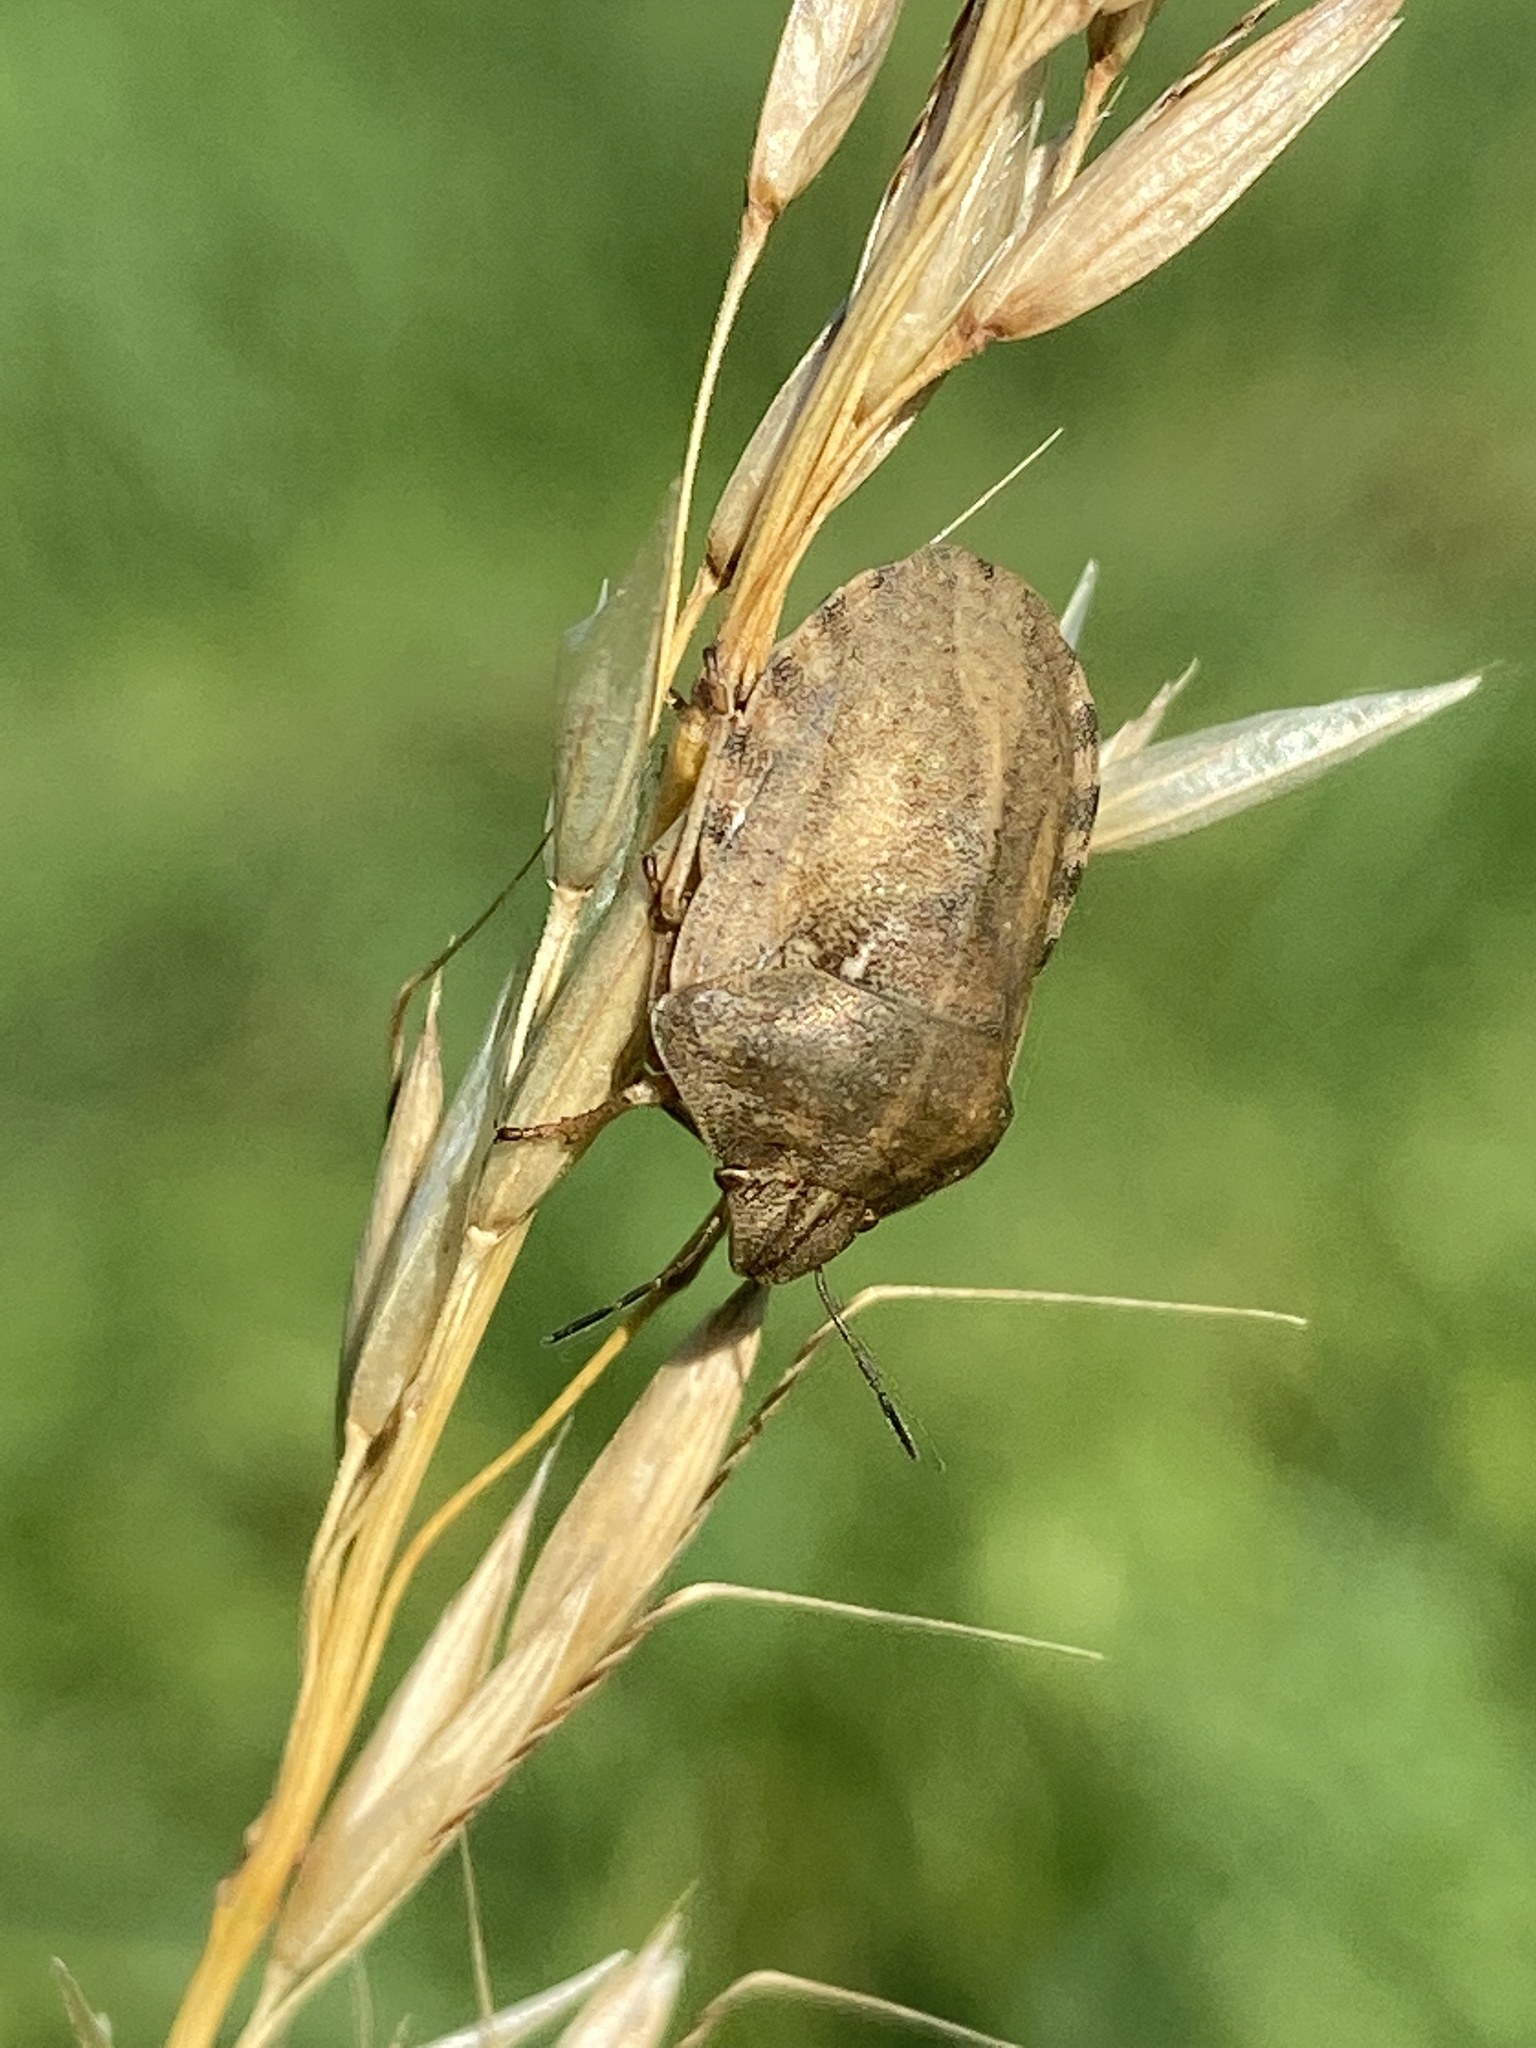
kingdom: Animalia
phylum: Arthropoda
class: Insecta
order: Hemiptera
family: Scutelleridae
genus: Eurygaster
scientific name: Eurygaster maura
